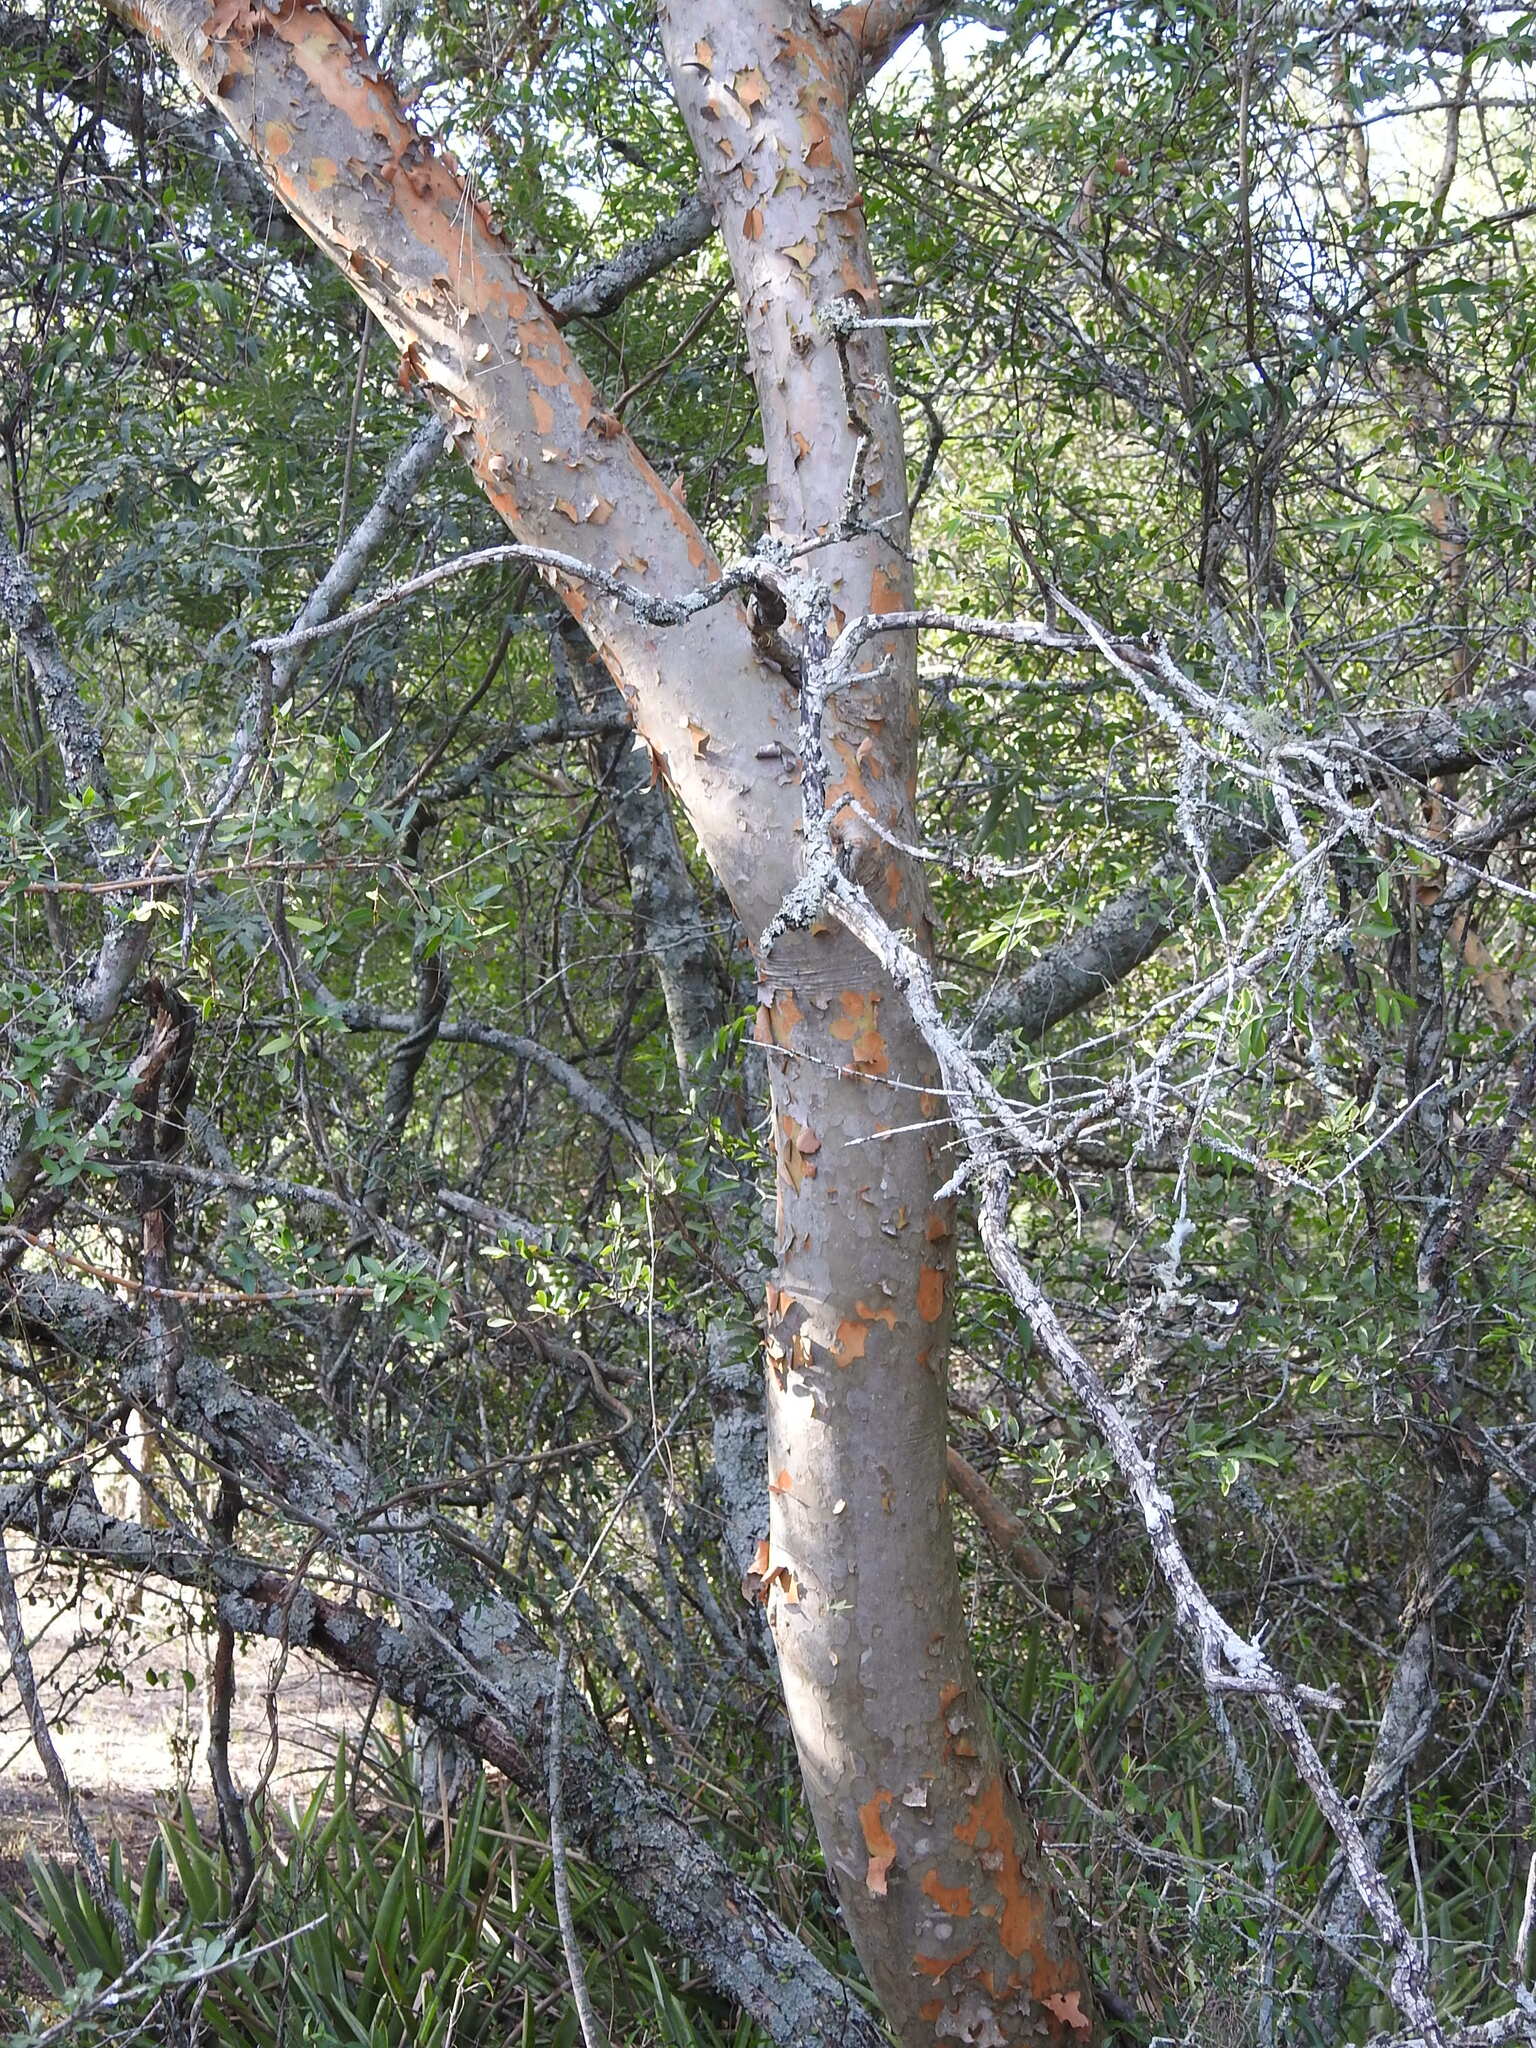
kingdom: Plantae
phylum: Tracheophyta
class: Magnoliopsida
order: Myrtales
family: Myrtaceae
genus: Myrcianthes
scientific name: Myrcianthes cisplatensis
